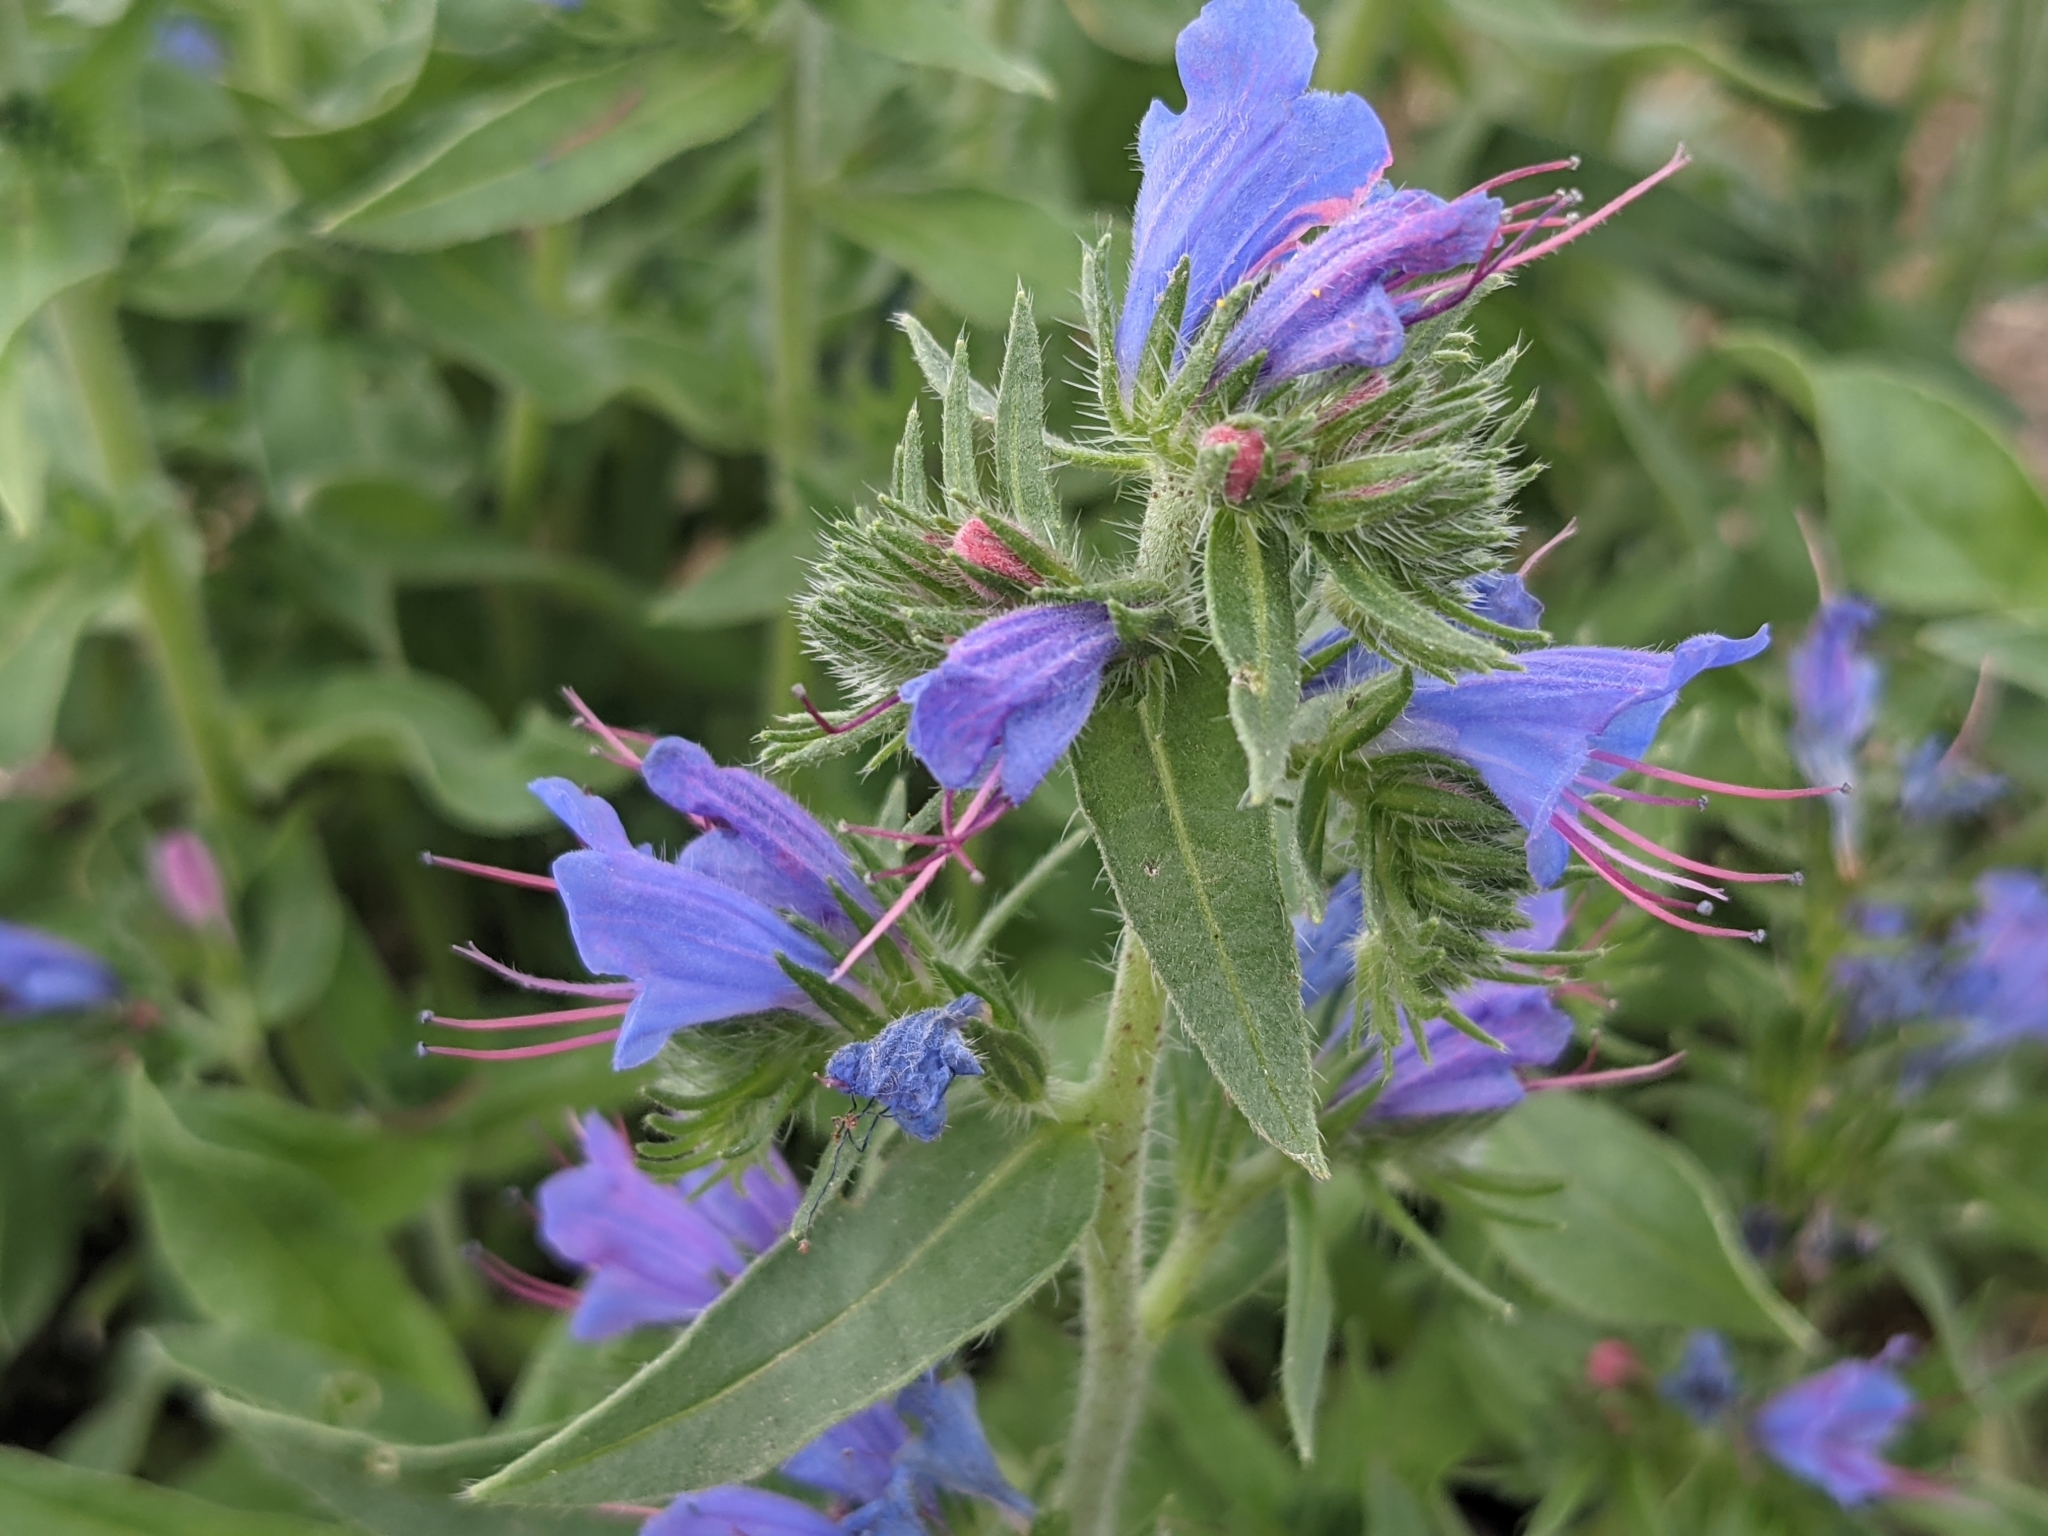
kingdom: Plantae
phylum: Tracheophyta
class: Magnoliopsida
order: Boraginales
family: Boraginaceae
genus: Echium
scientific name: Echium vulgare
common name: Common viper's bugloss
